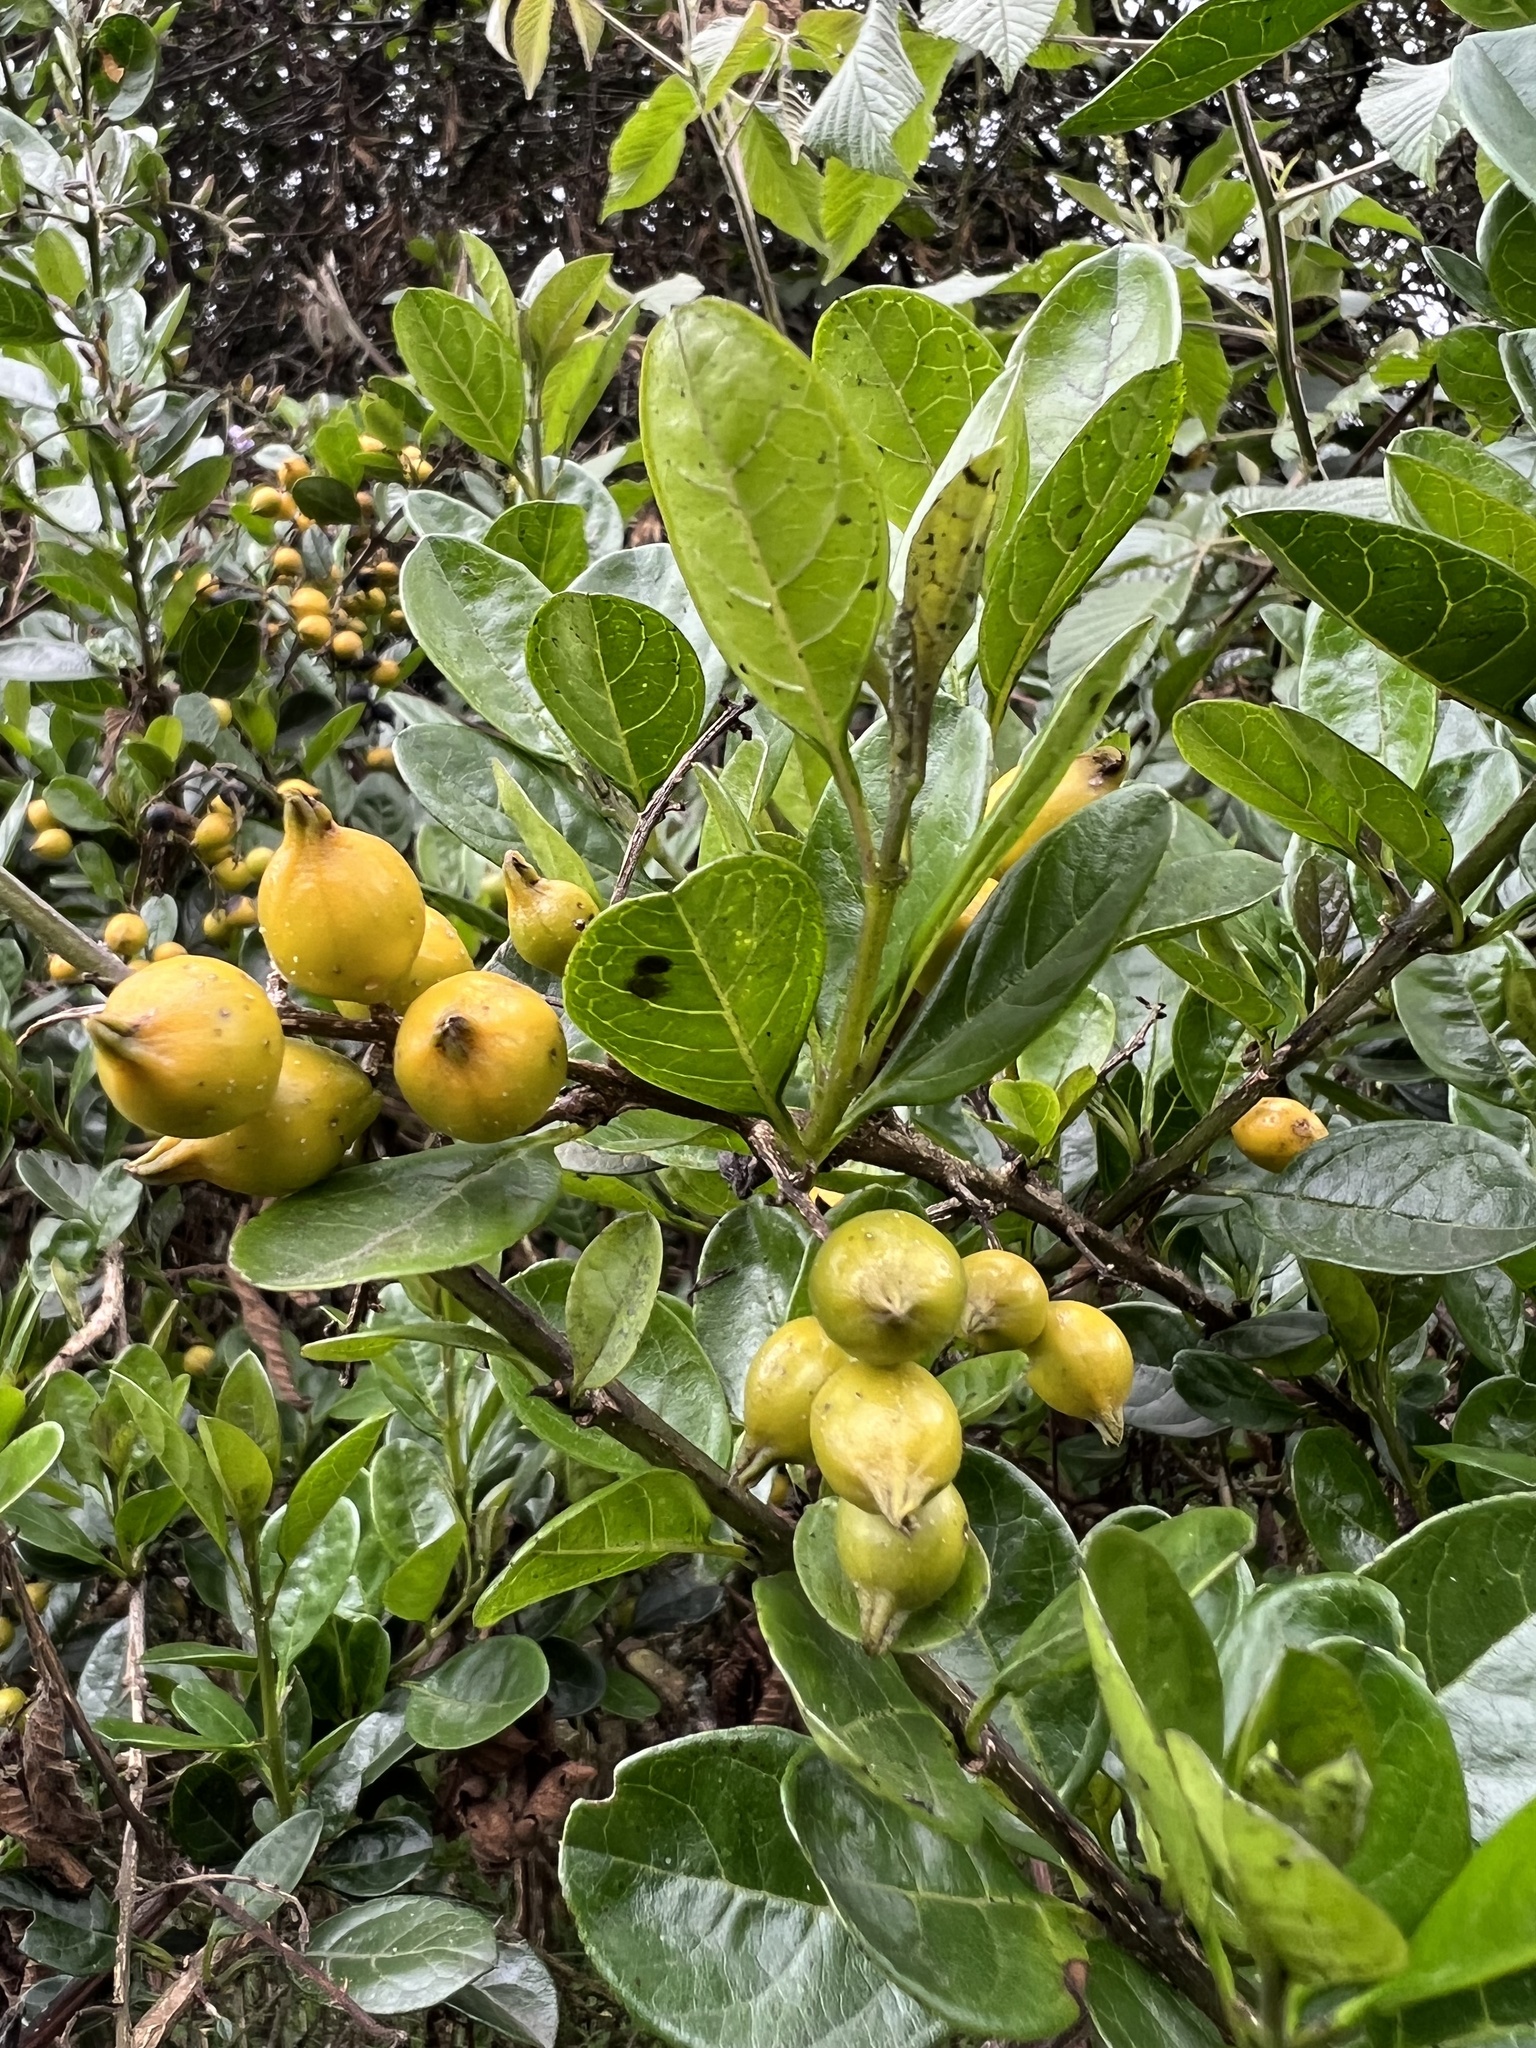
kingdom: Plantae
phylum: Tracheophyta
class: Magnoliopsida
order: Lamiales
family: Verbenaceae
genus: Duranta
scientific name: Duranta mutisii
